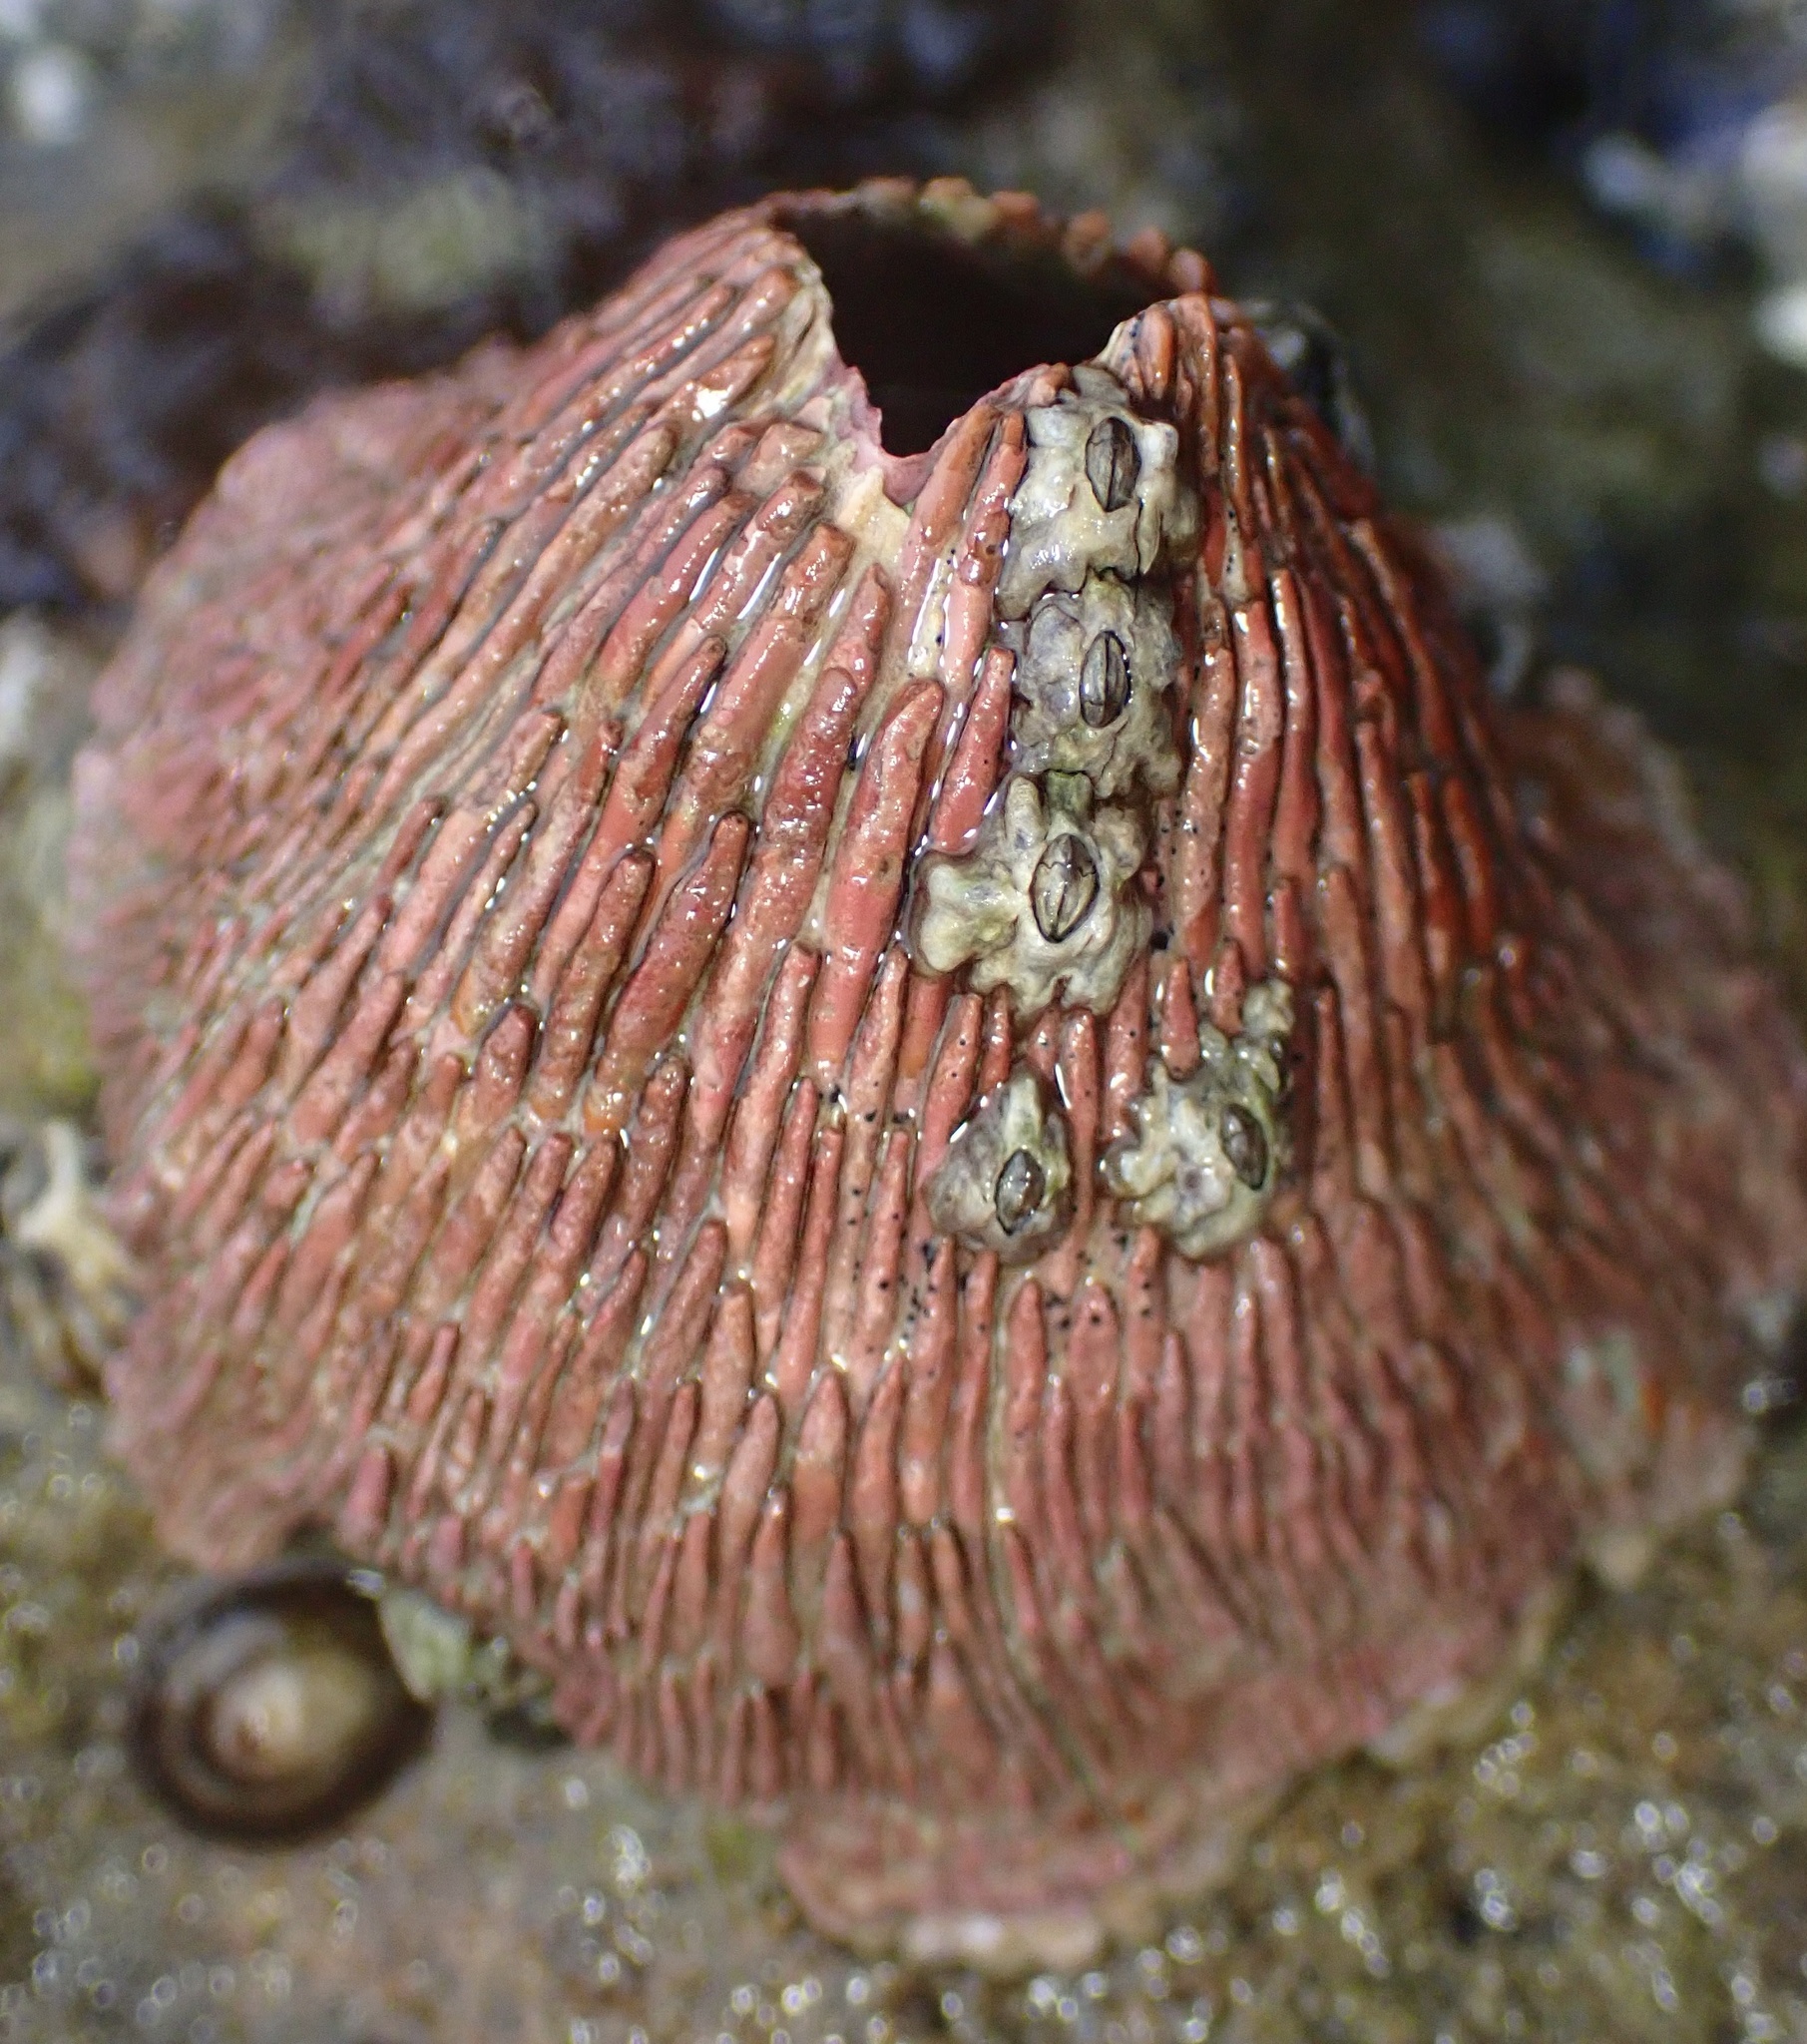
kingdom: Animalia
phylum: Arthropoda
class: Maxillopoda
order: Sessilia
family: Tetraclitidae
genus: Tetraclita
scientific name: Tetraclita rubescens
